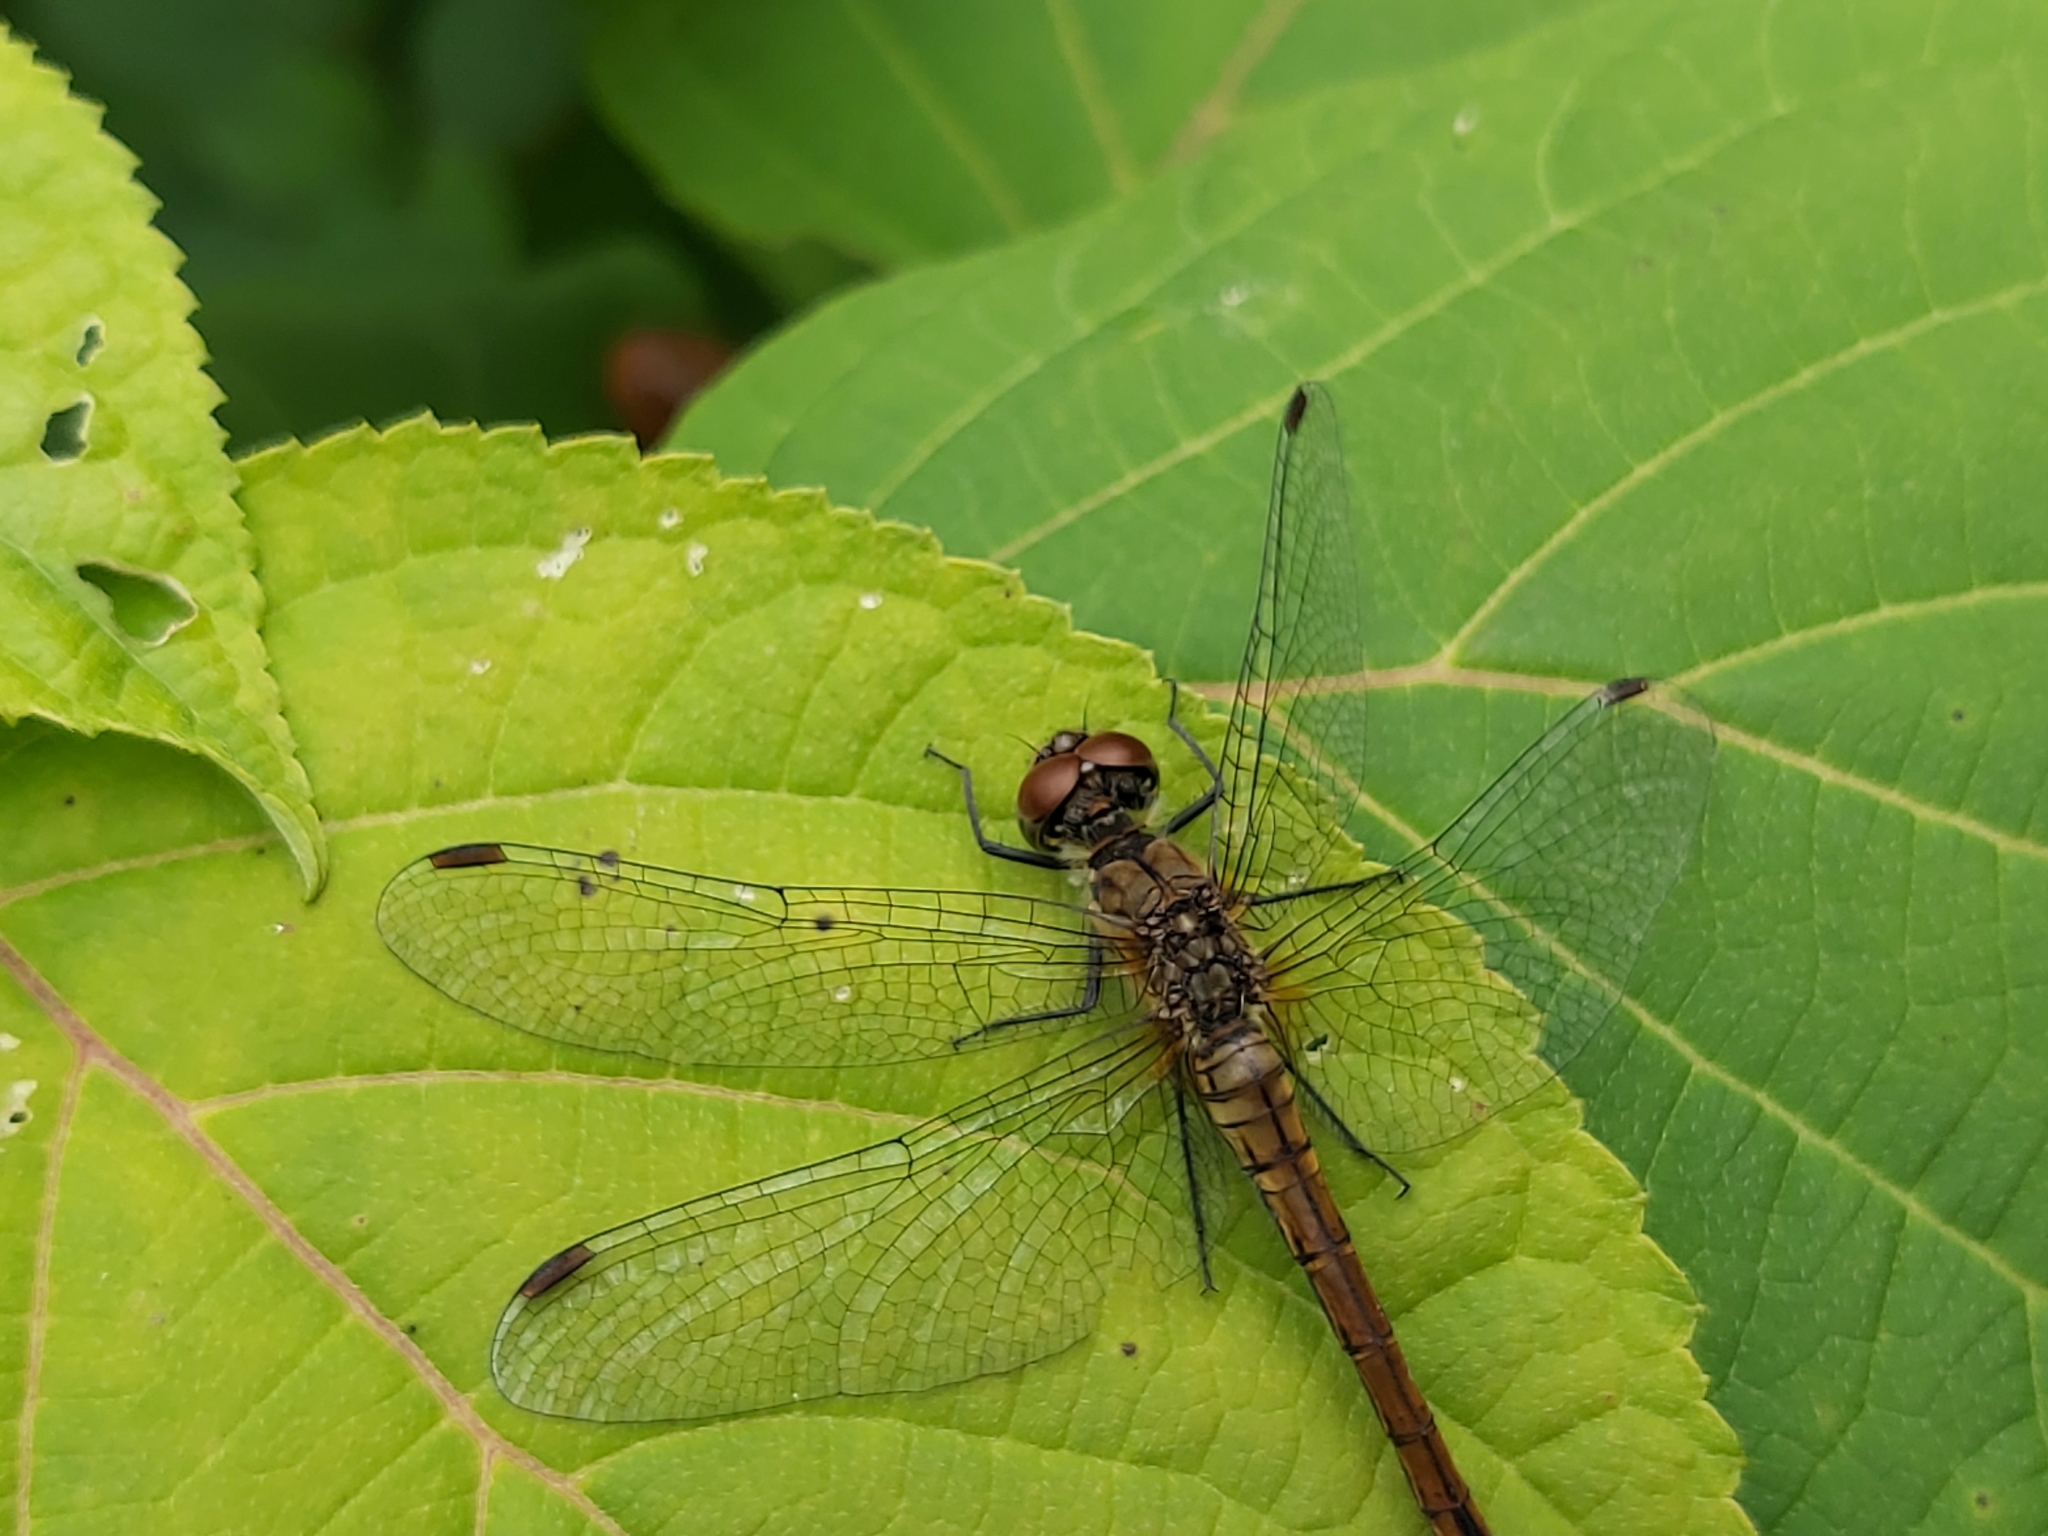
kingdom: Animalia
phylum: Arthropoda
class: Insecta
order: Odonata
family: Libellulidae
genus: Sympetrum
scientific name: Sympetrum sanguineum
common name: Ruddy darter
